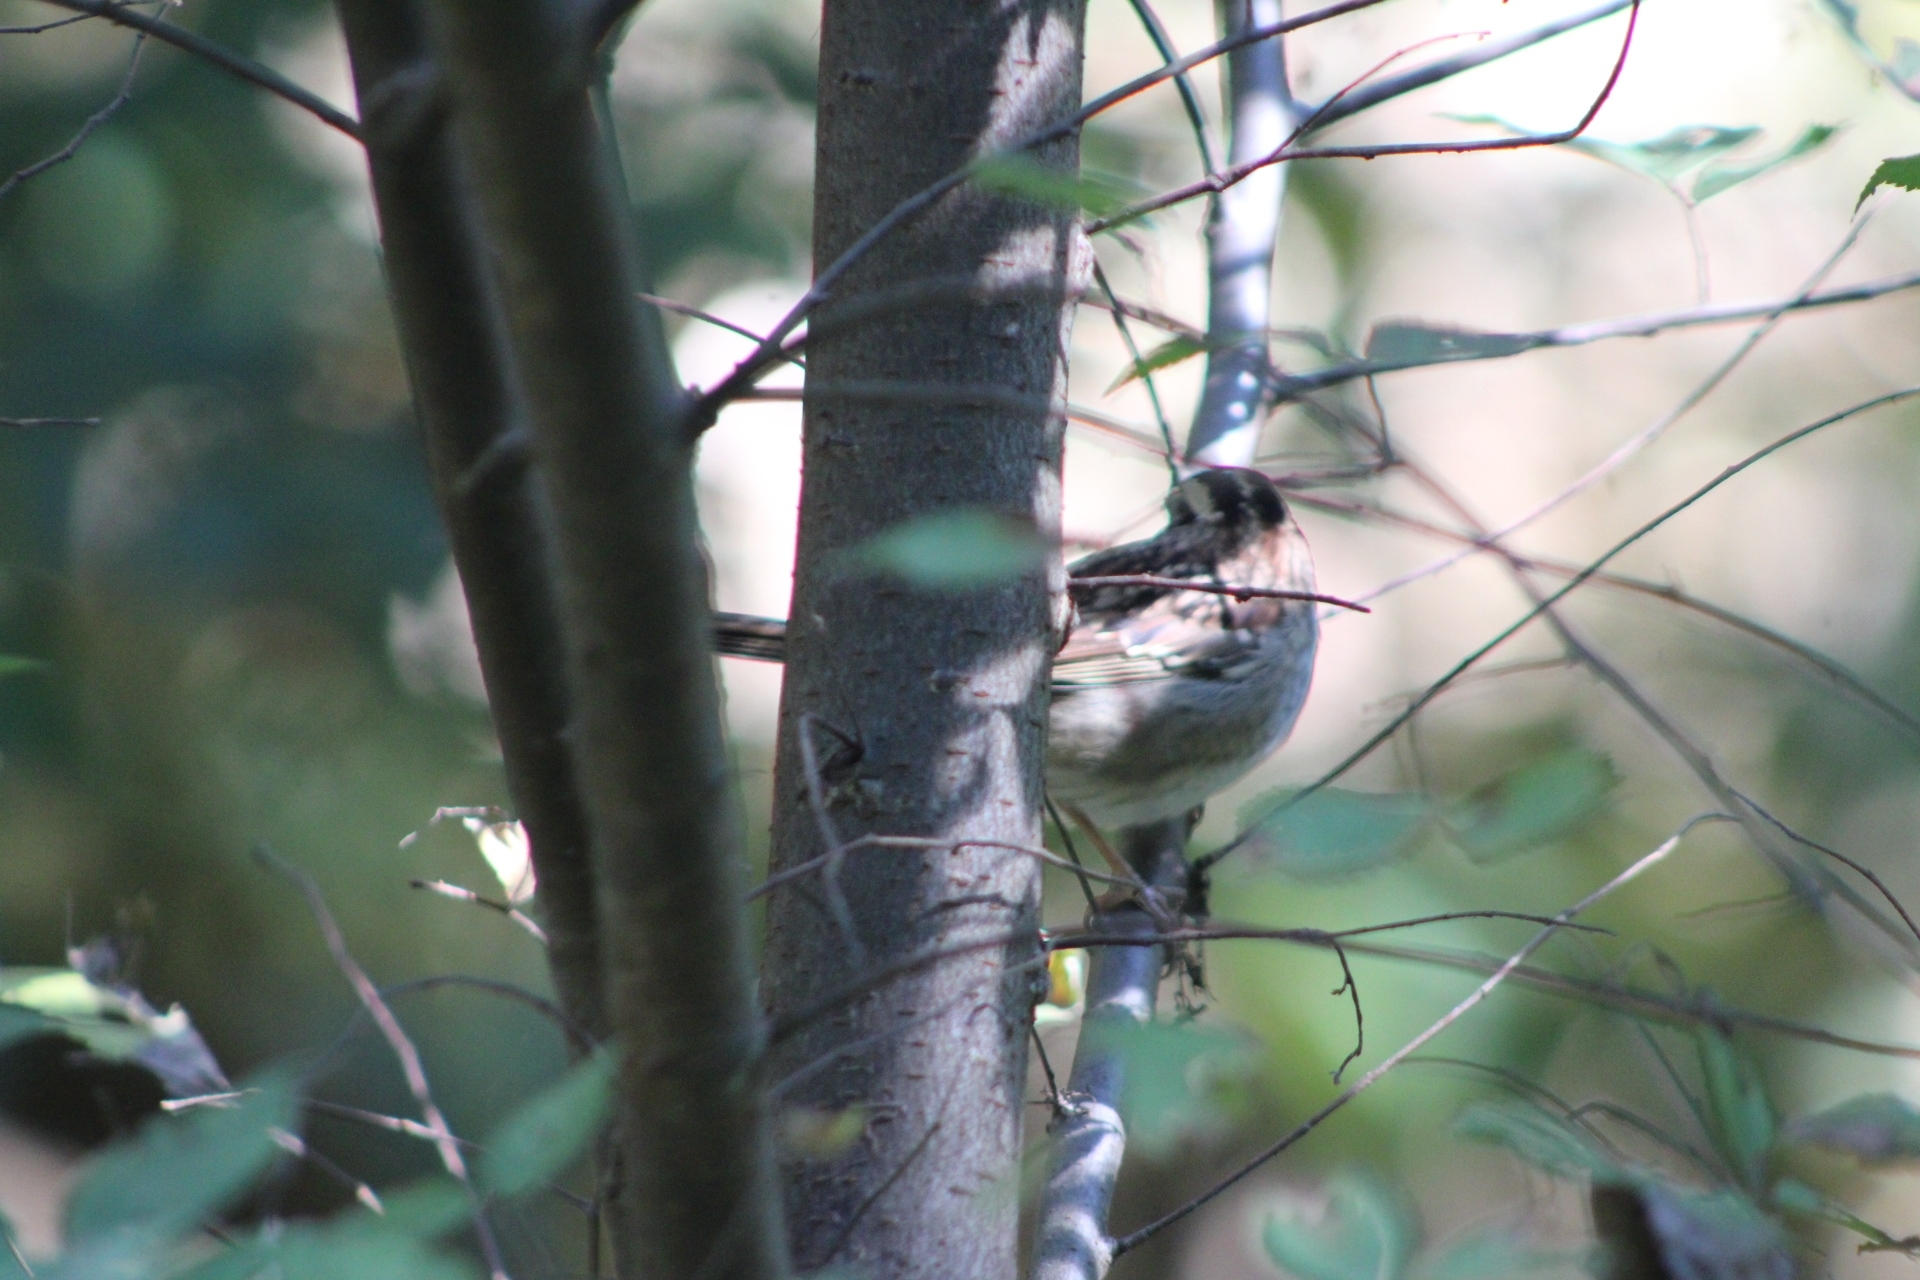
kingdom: Animalia
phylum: Chordata
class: Aves
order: Passeriformes
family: Passerellidae
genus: Zonotrichia
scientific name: Zonotrichia albicollis
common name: White-throated sparrow
